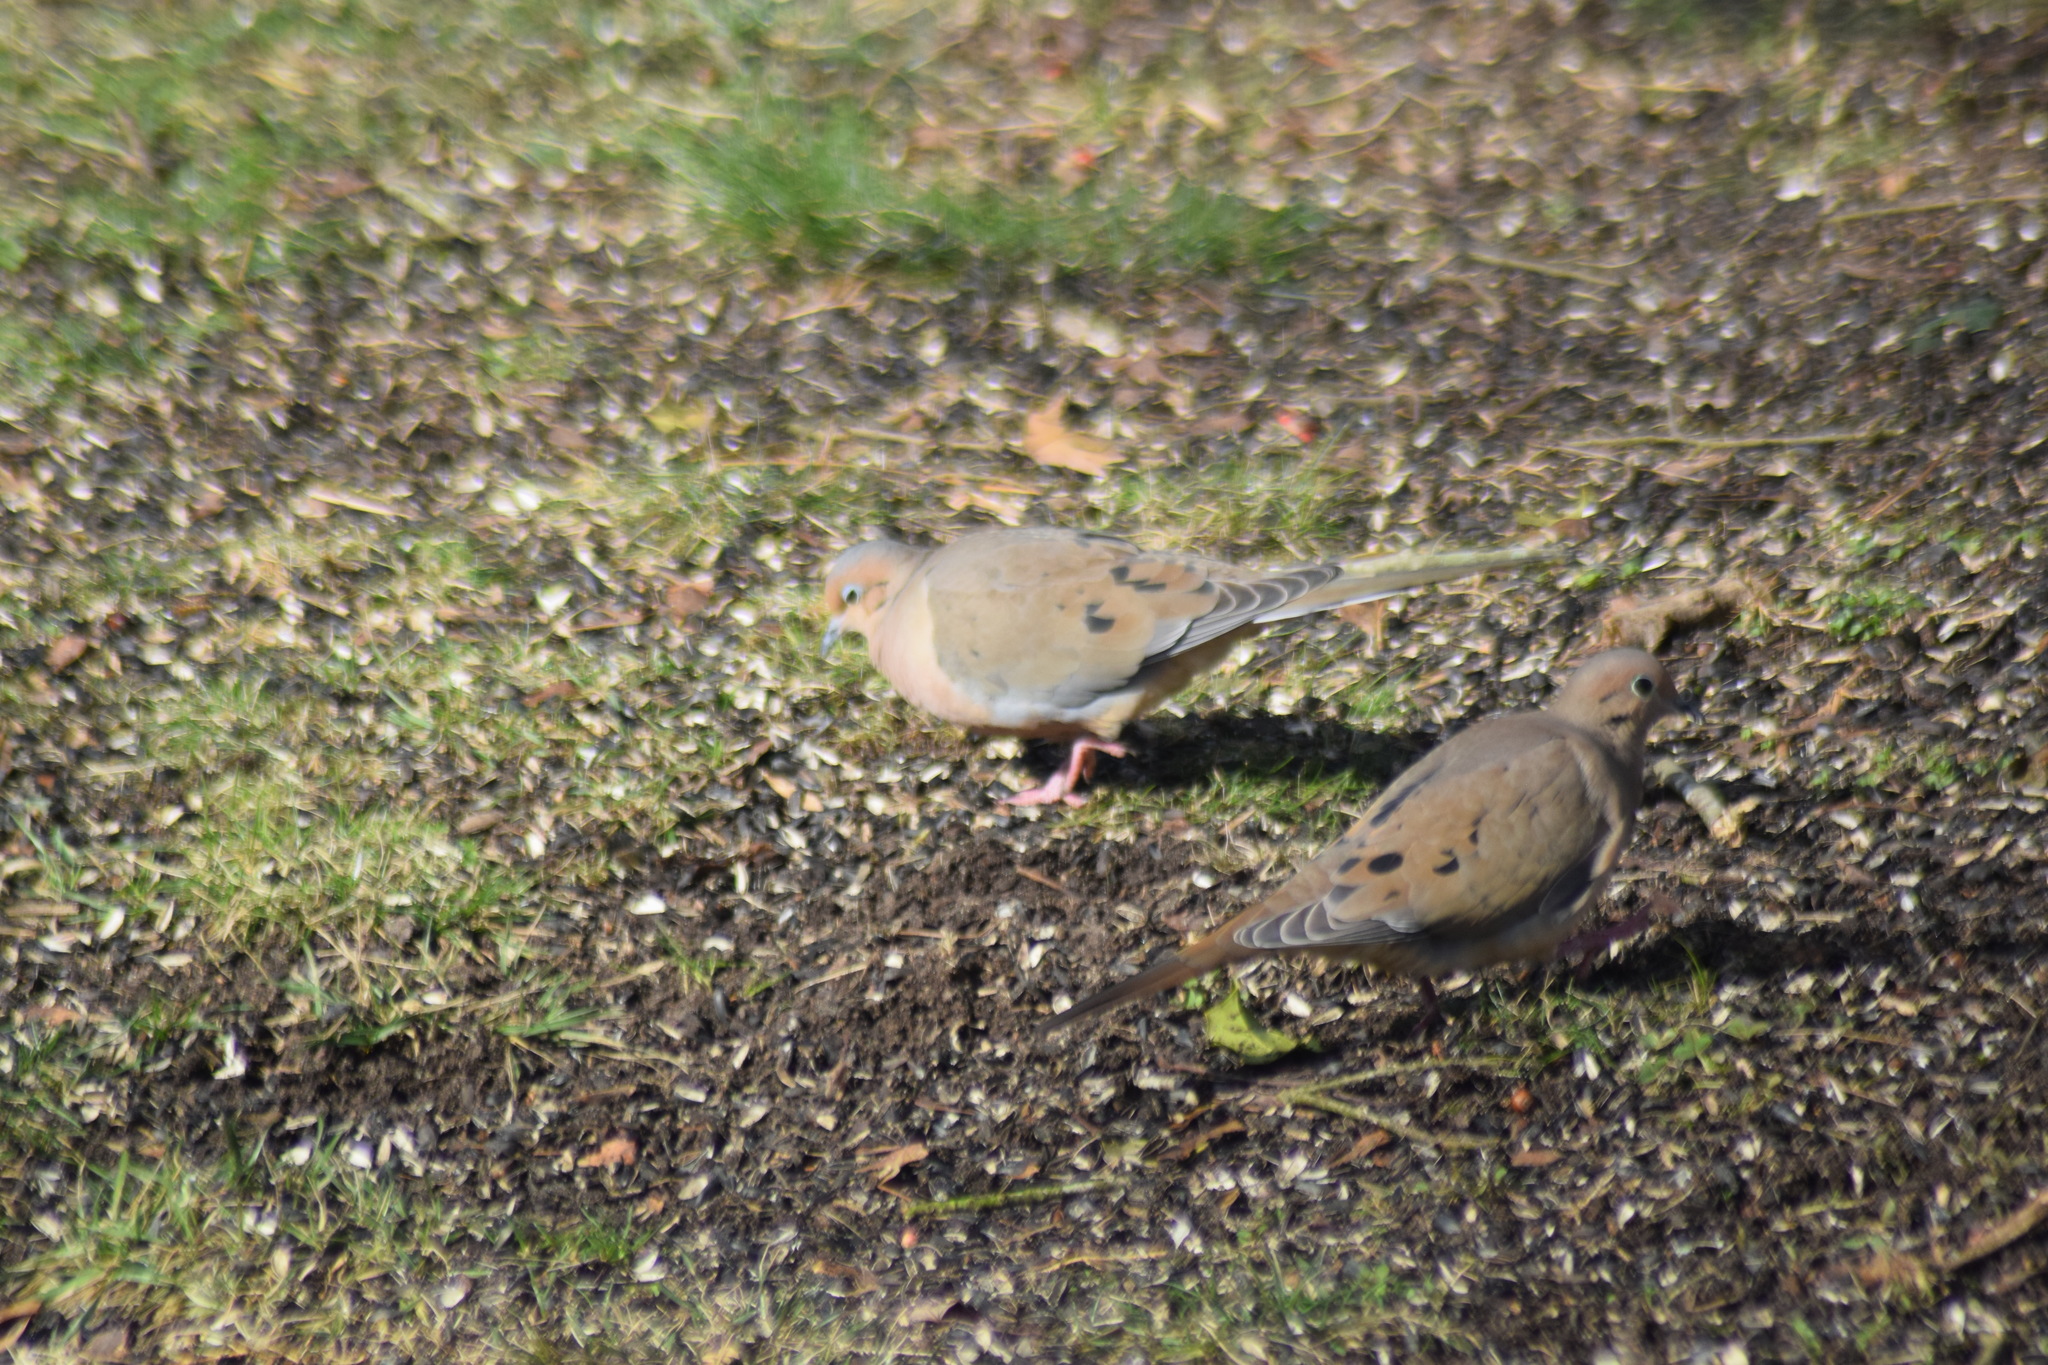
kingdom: Animalia
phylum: Chordata
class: Aves
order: Columbiformes
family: Columbidae
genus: Zenaida
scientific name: Zenaida macroura
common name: Mourning dove
